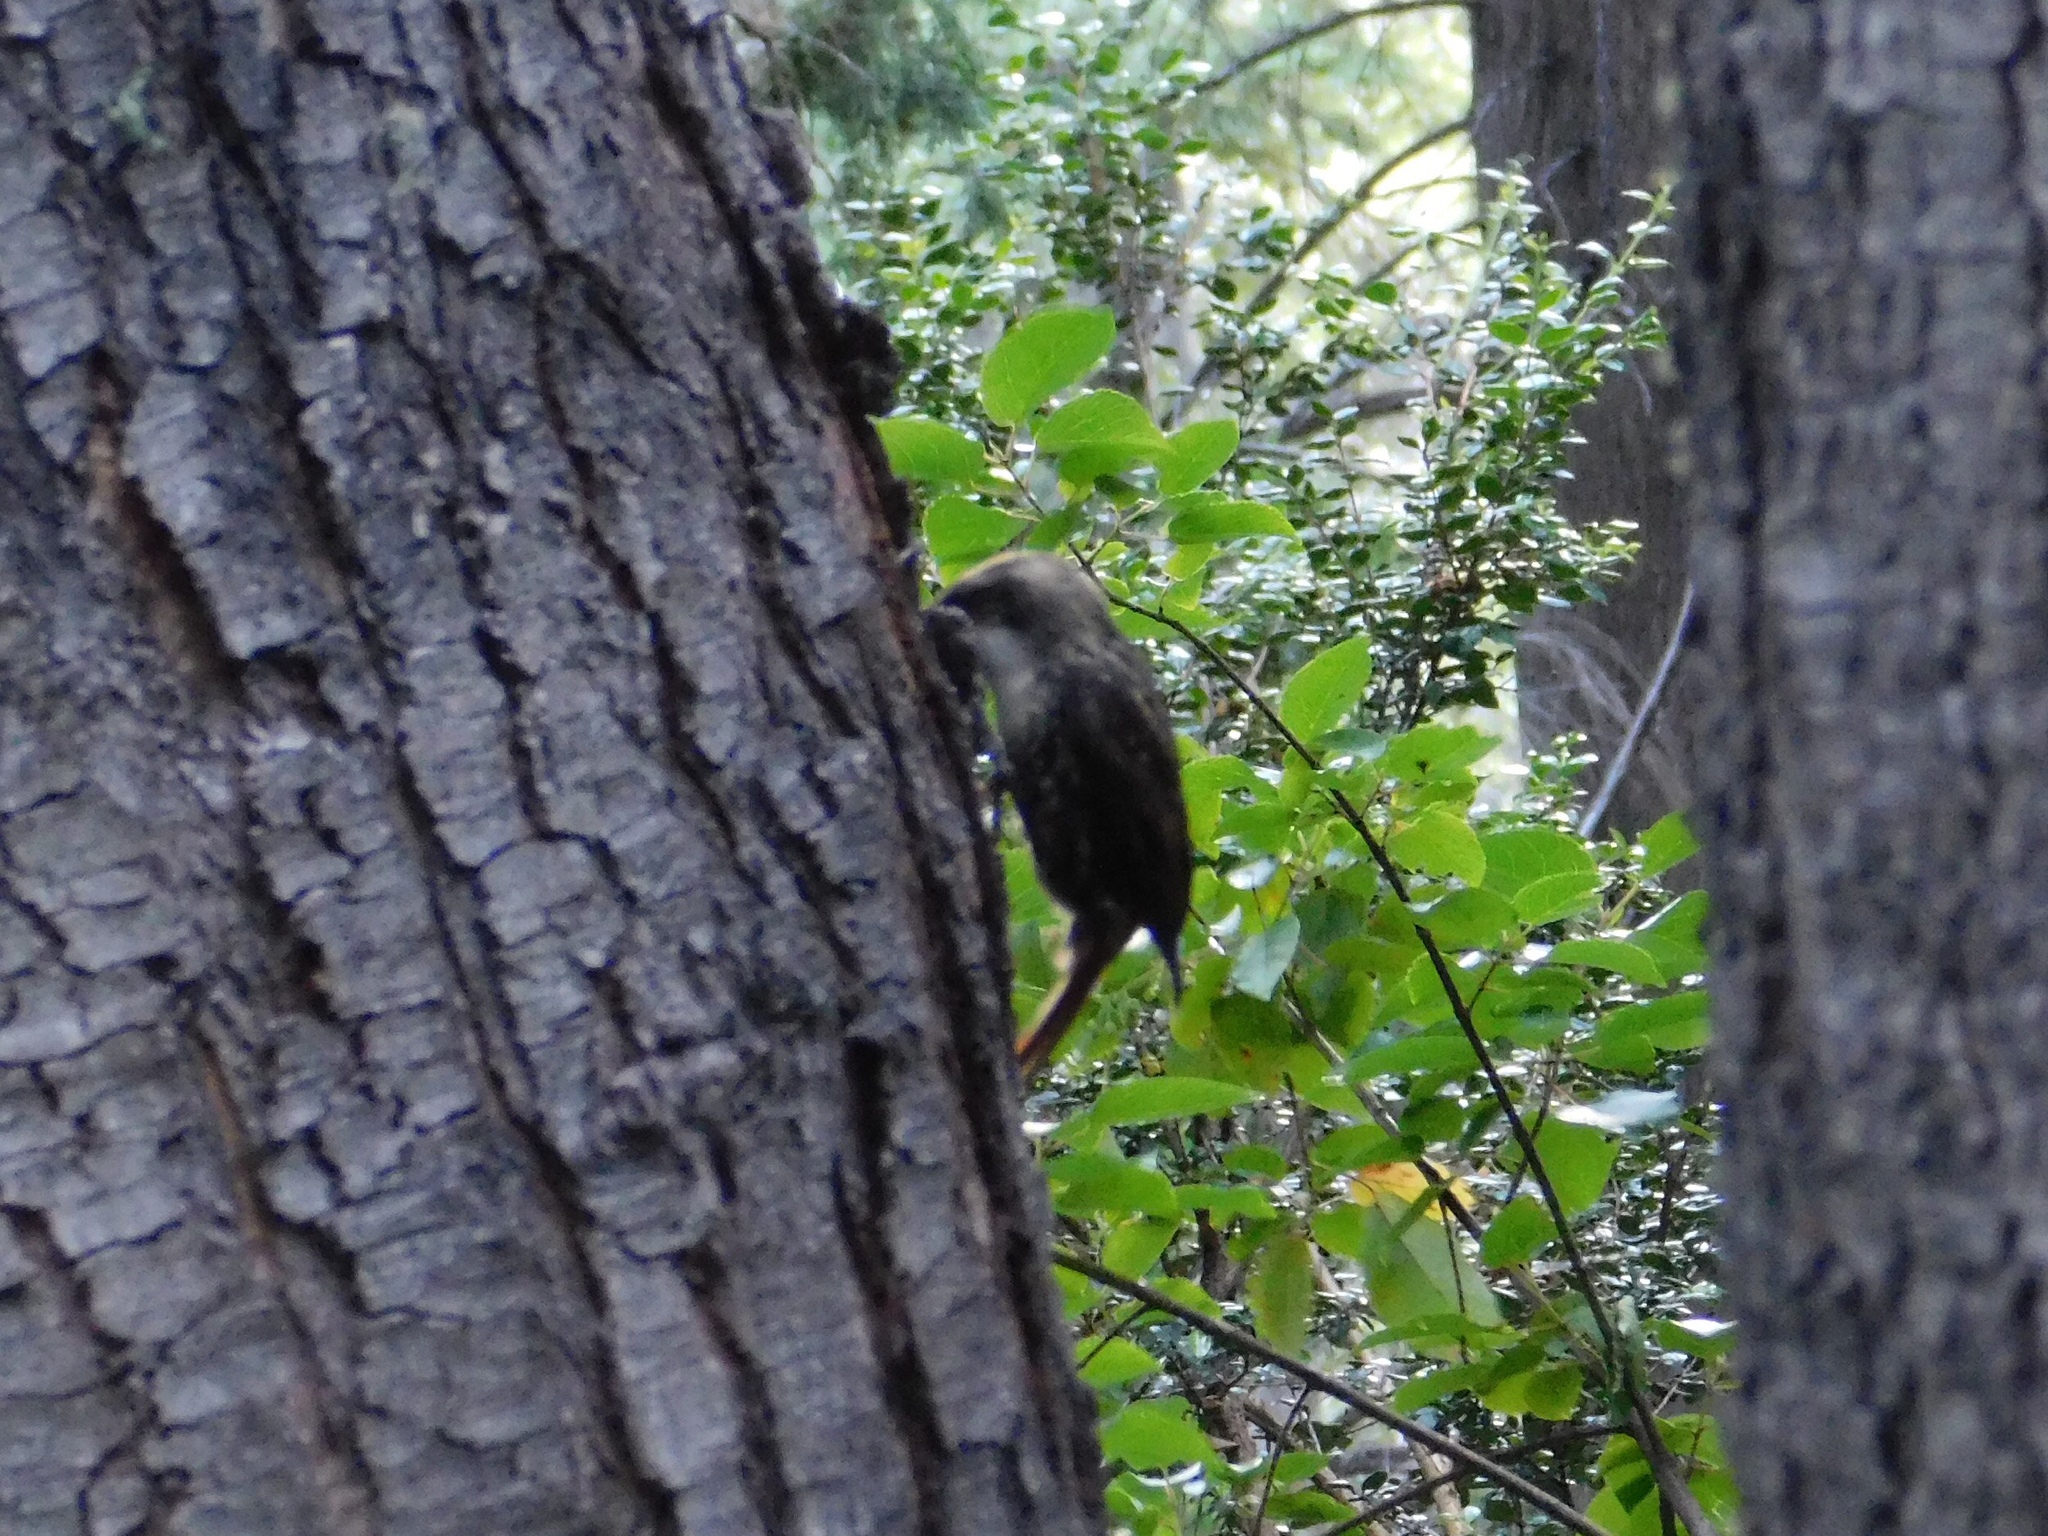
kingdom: Animalia
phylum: Chordata
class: Aves
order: Passeriformes
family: Furnariidae
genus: Pygarrhichas
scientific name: Pygarrhichas albogularis
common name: White-throated treerunner
